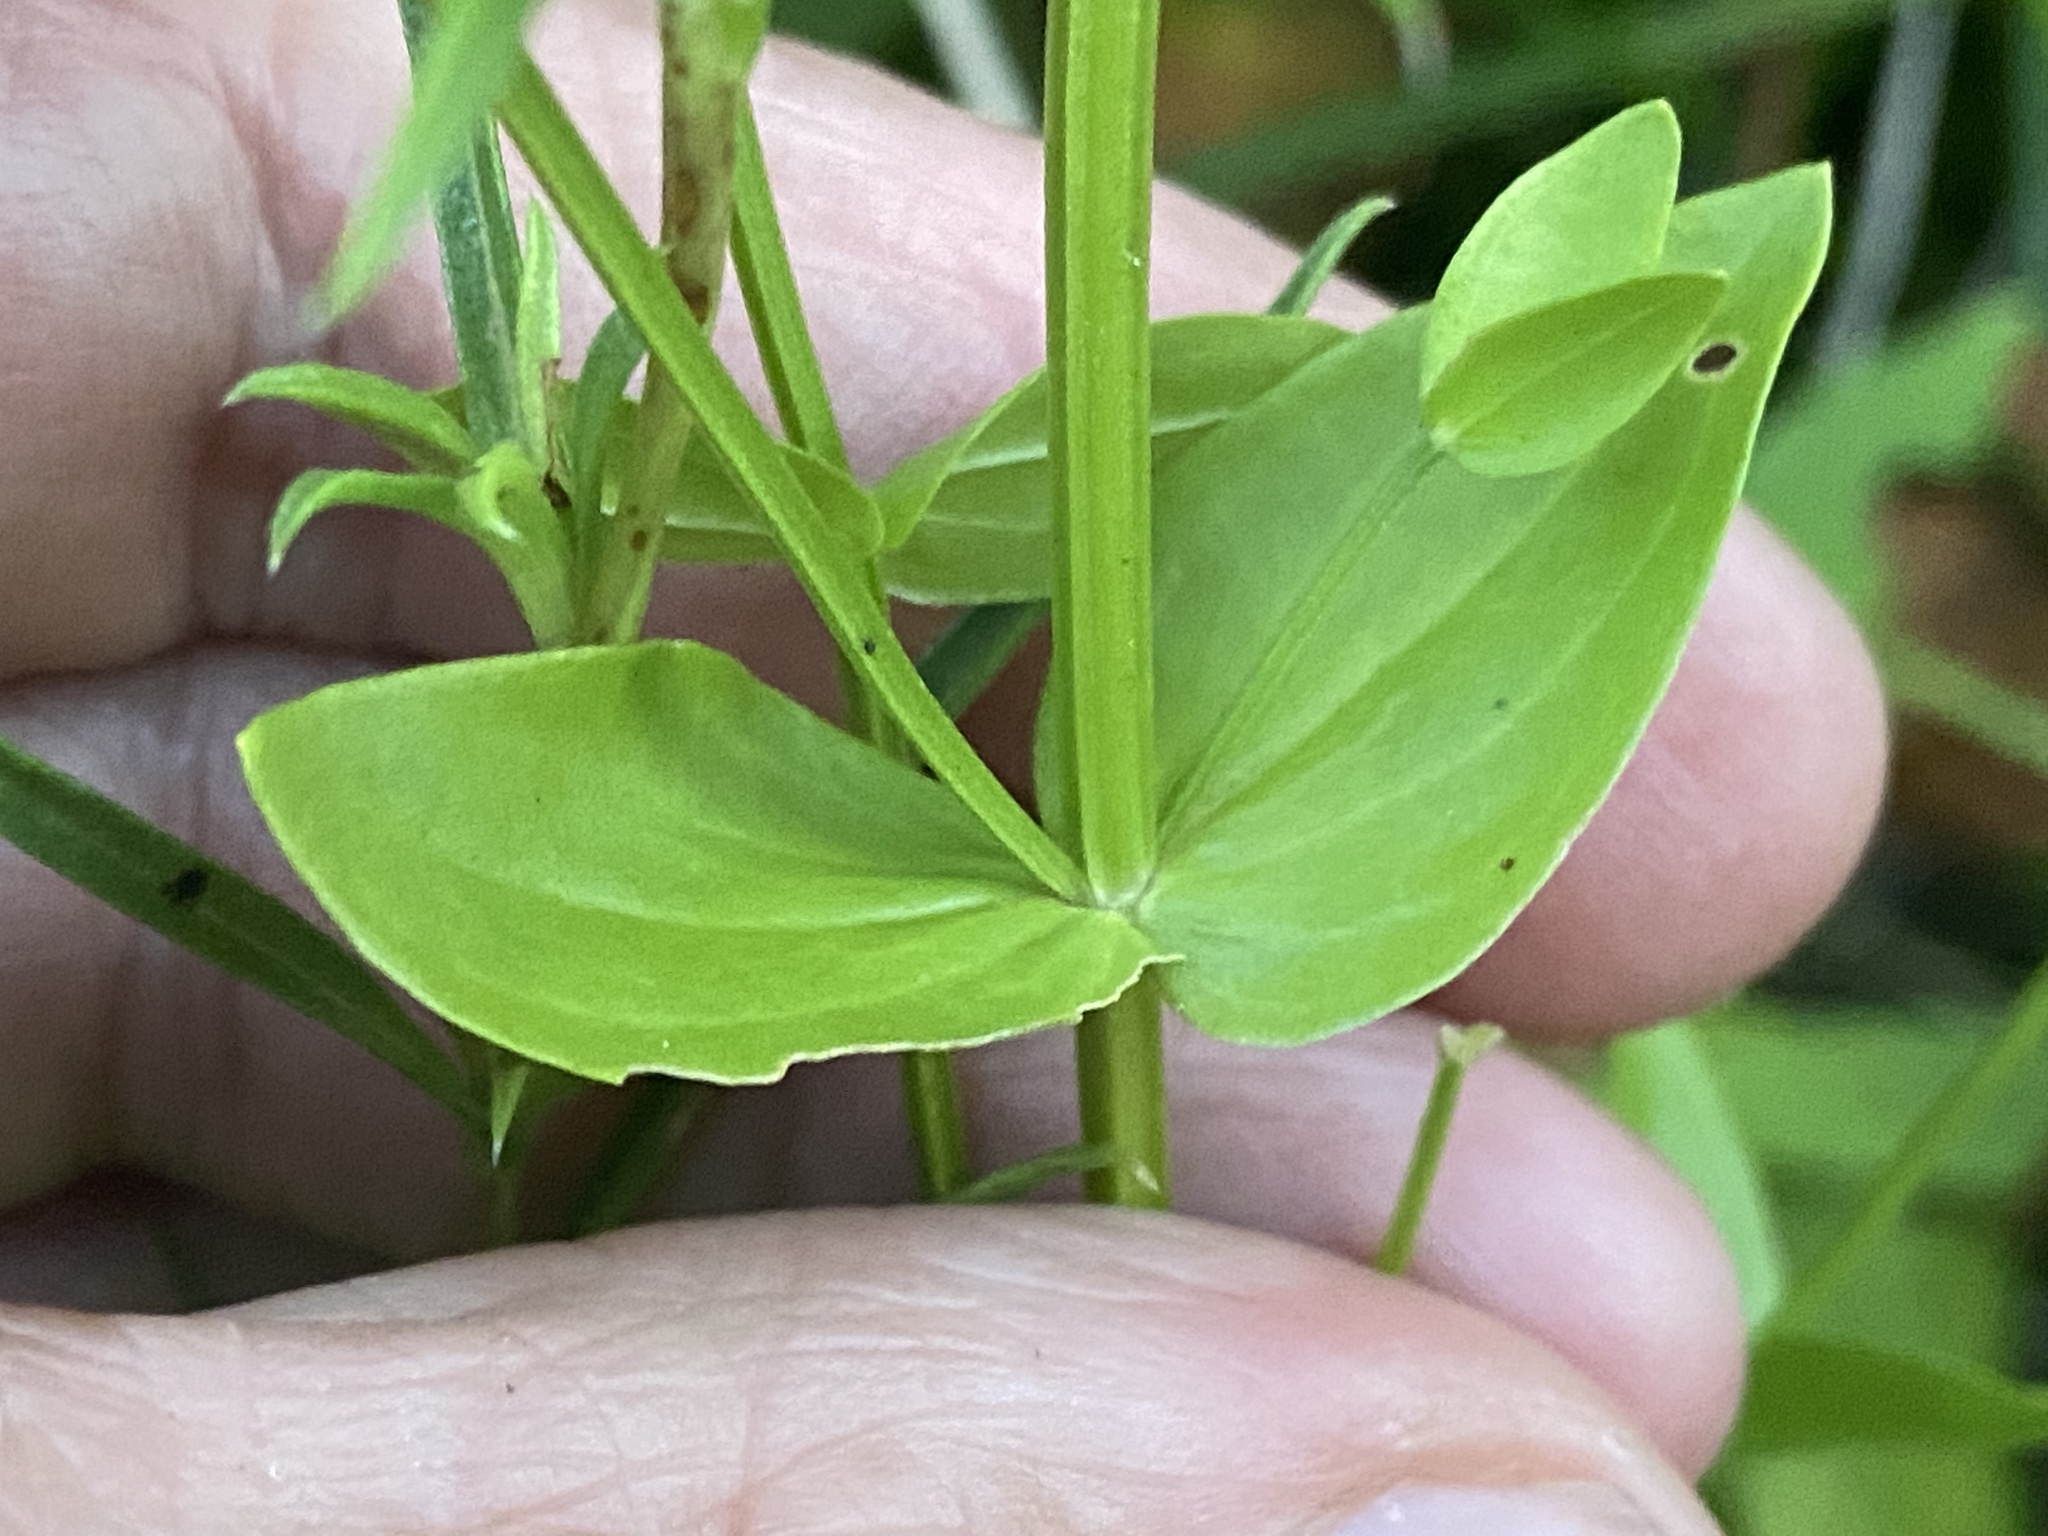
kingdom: Plantae
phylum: Tracheophyta
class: Magnoliopsida
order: Gentianales
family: Gentianaceae
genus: Sabatia
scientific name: Sabatia angularis
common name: Rose-pink
